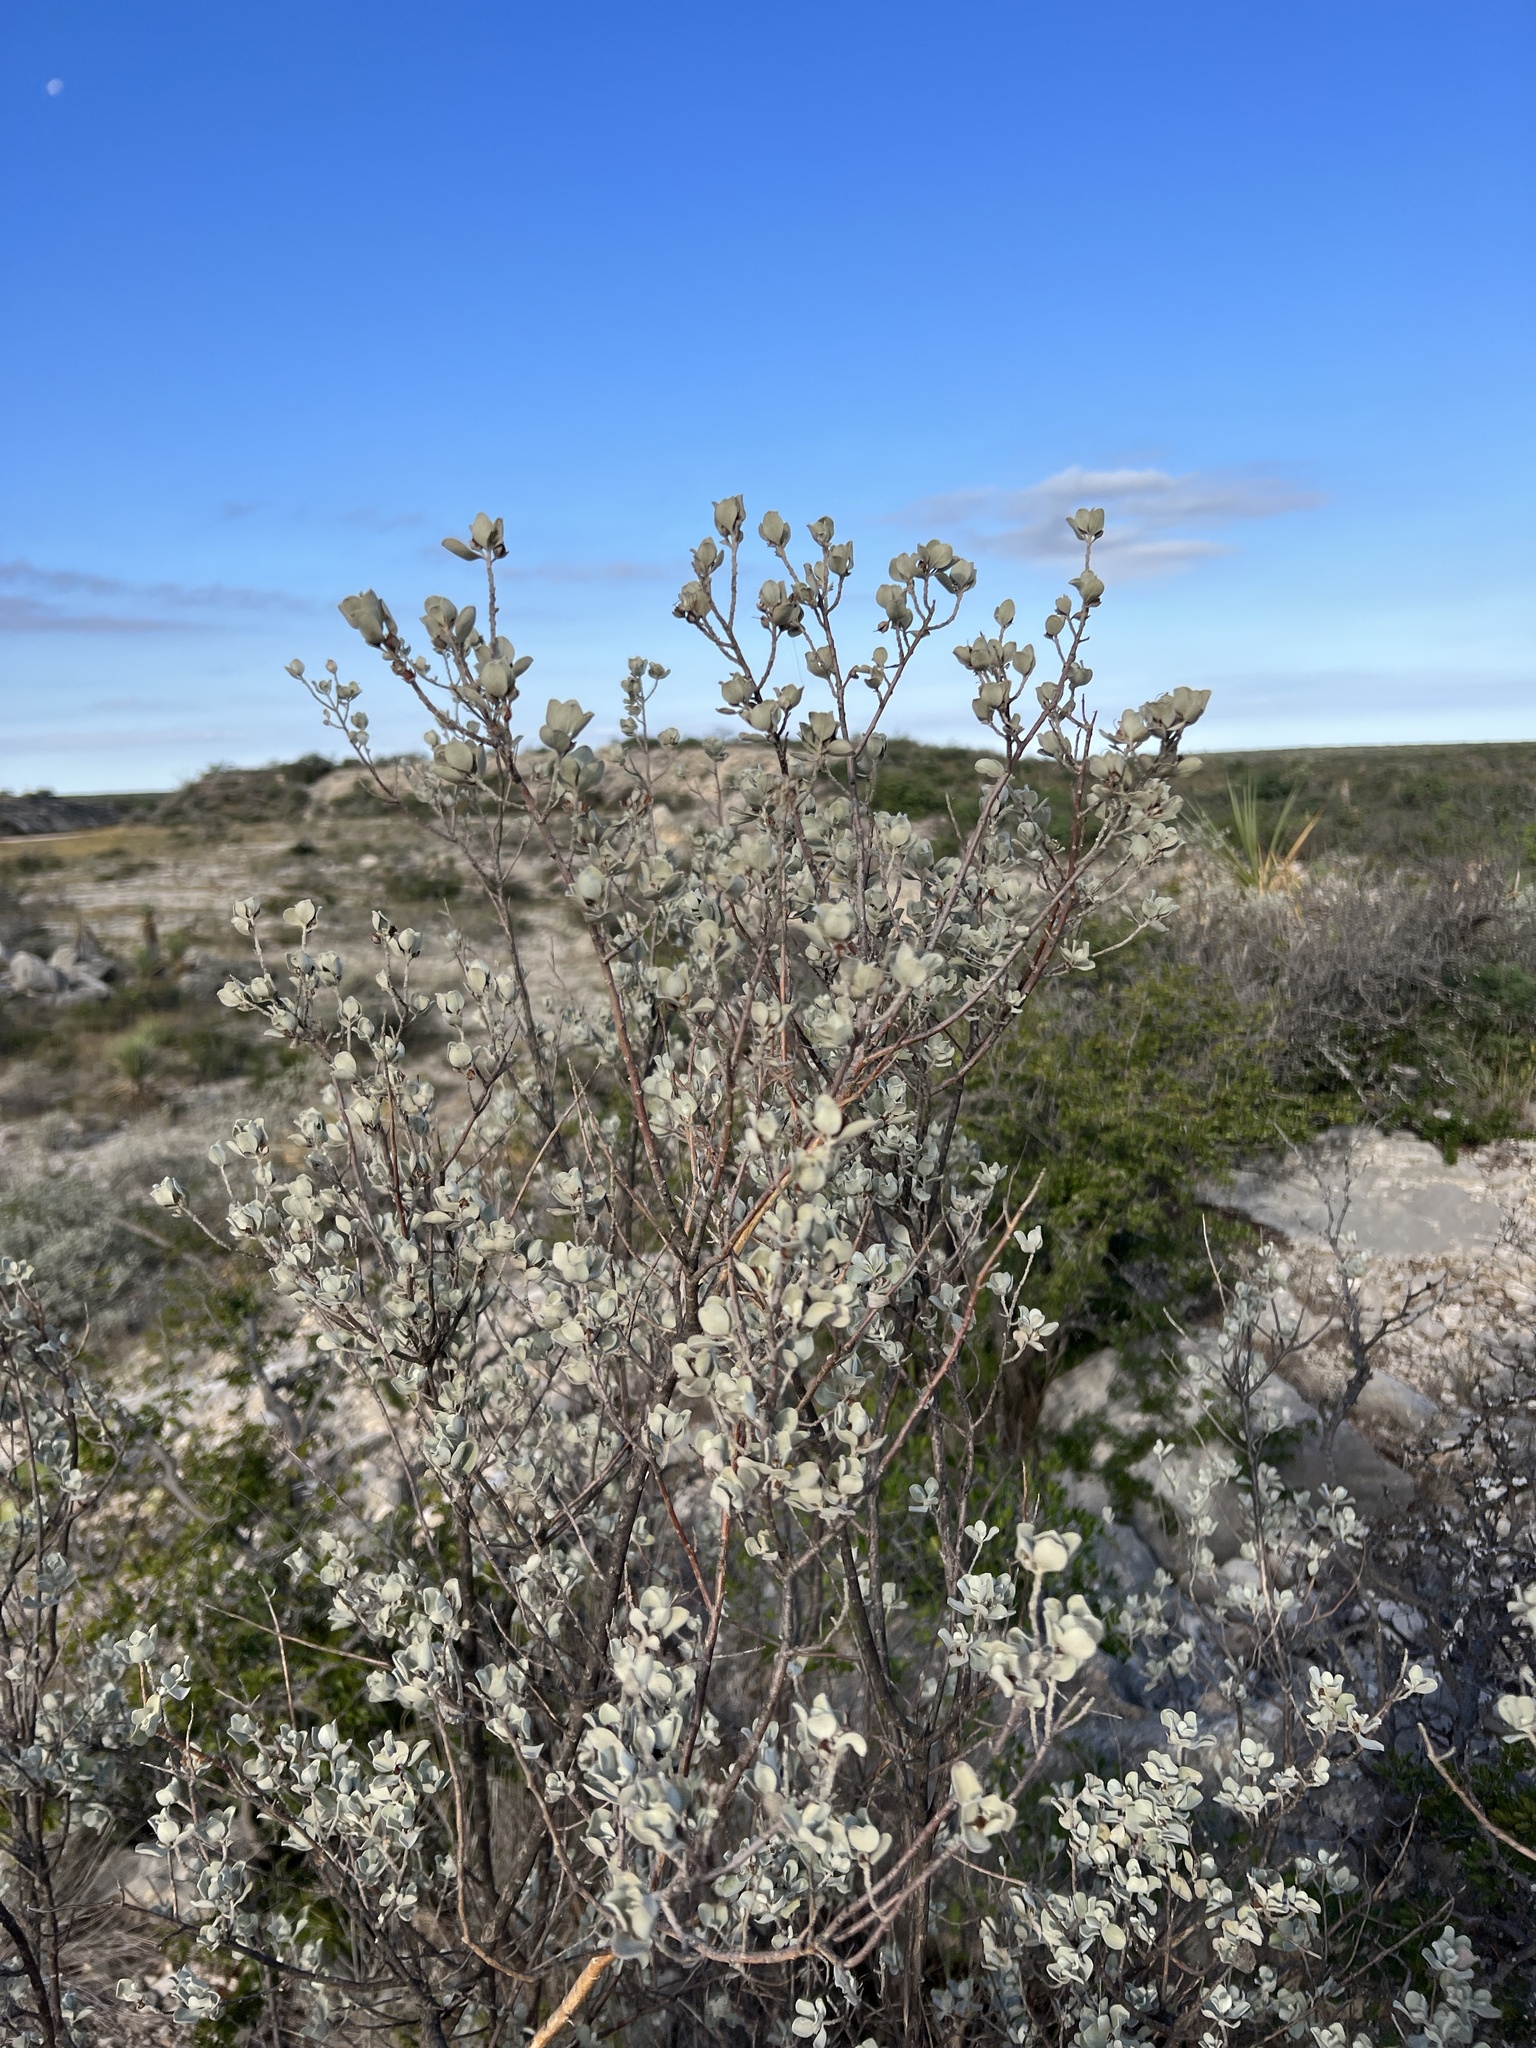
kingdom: Plantae
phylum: Tracheophyta
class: Magnoliopsida
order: Lamiales
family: Scrophulariaceae
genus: Leucophyllum
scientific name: Leucophyllum frutescens
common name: Texas silverleaf
